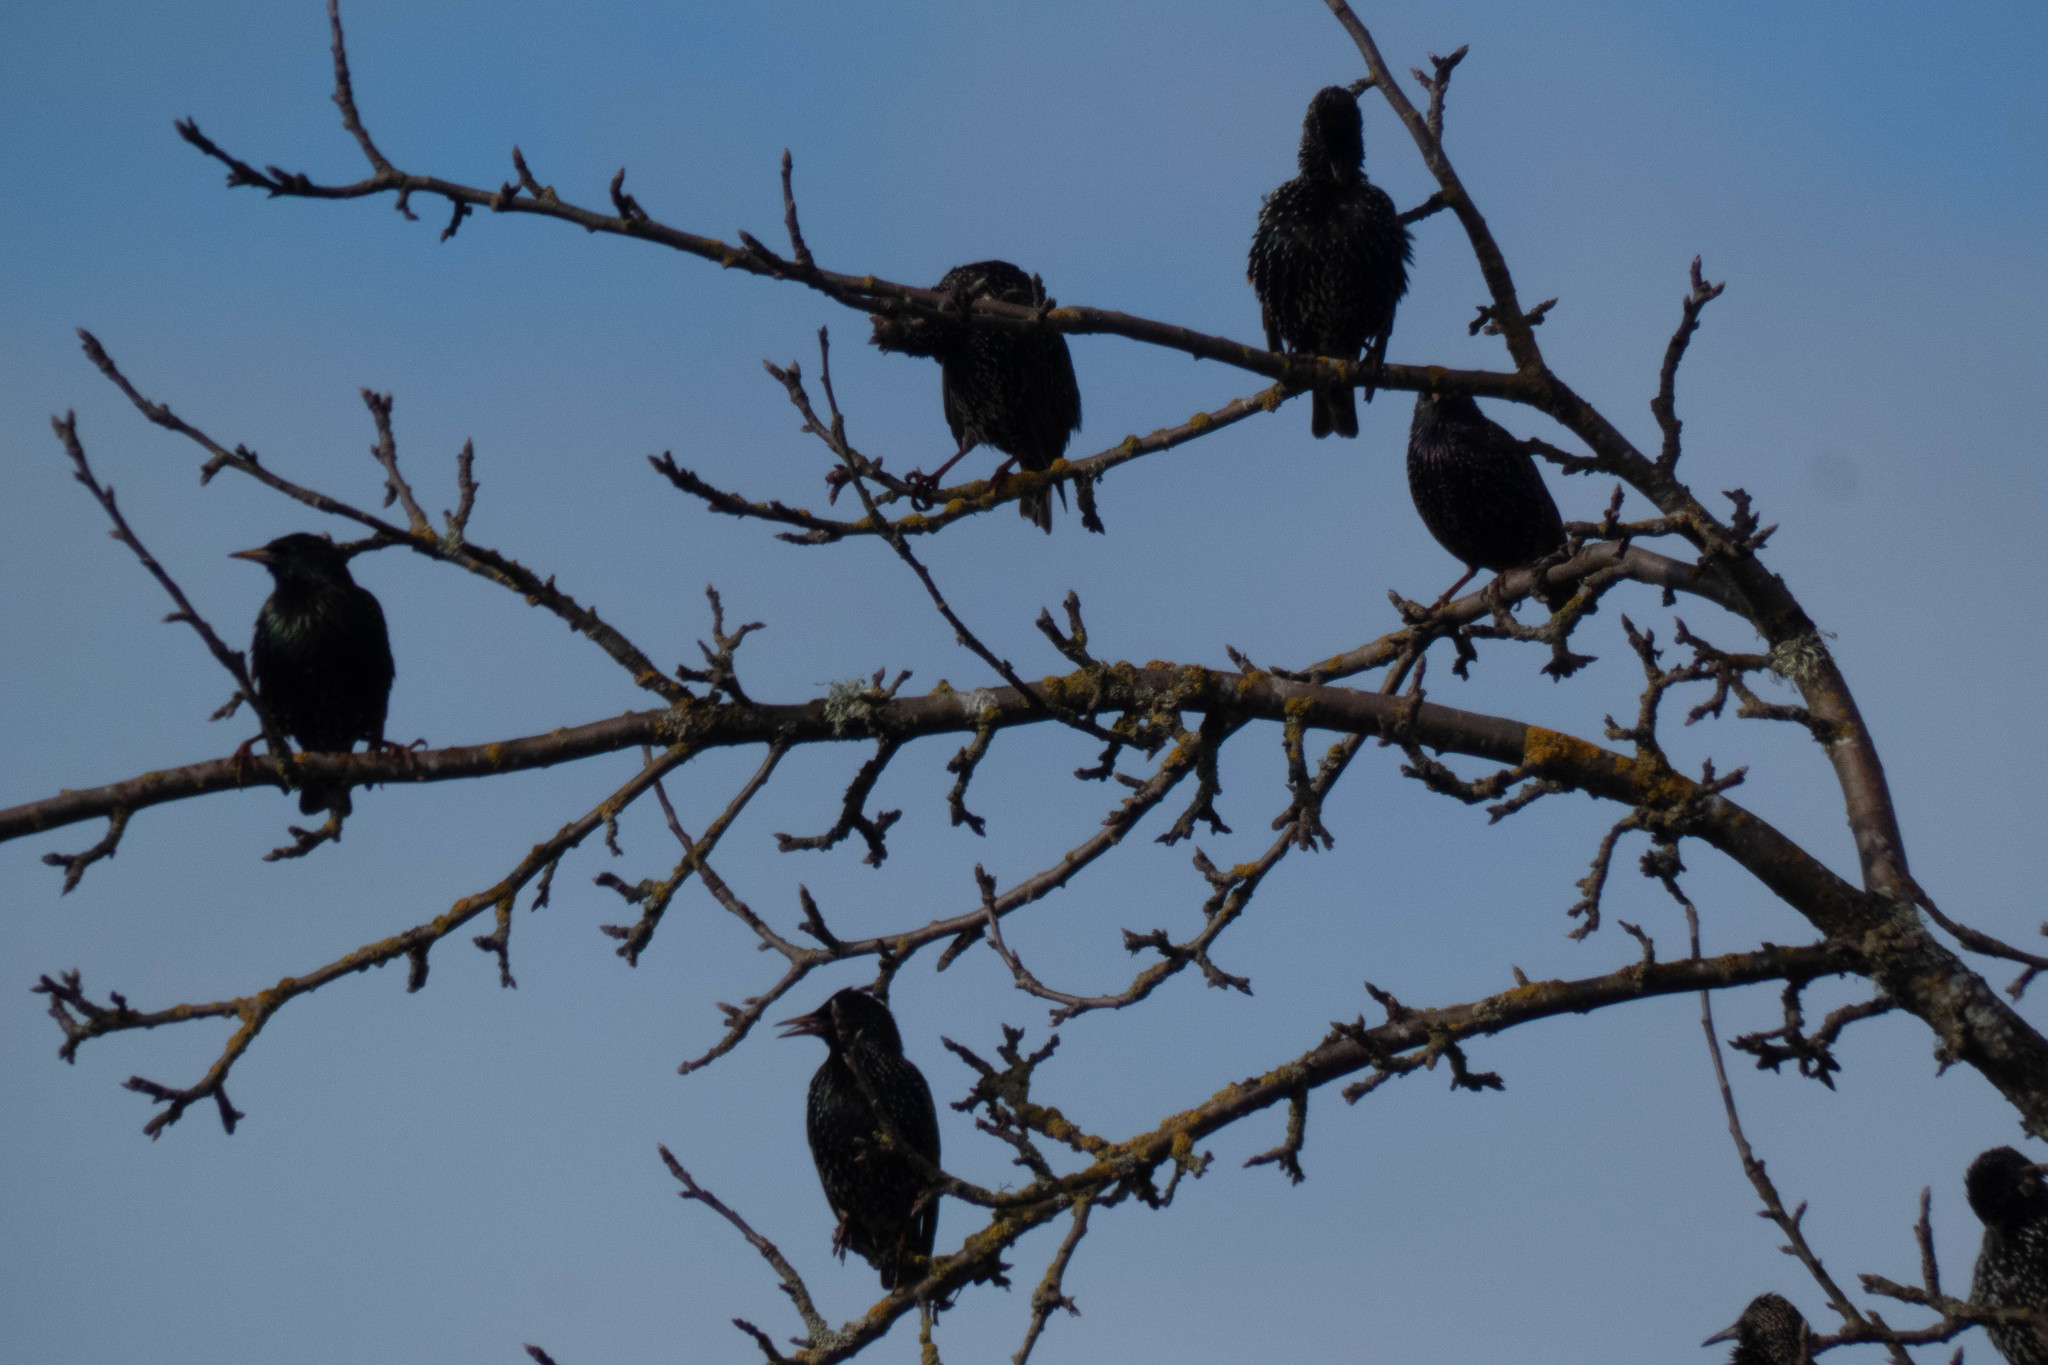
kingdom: Animalia
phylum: Chordata
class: Aves
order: Passeriformes
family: Sturnidae
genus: Sturnus
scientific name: Sturnus vulgaris
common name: Common starling
